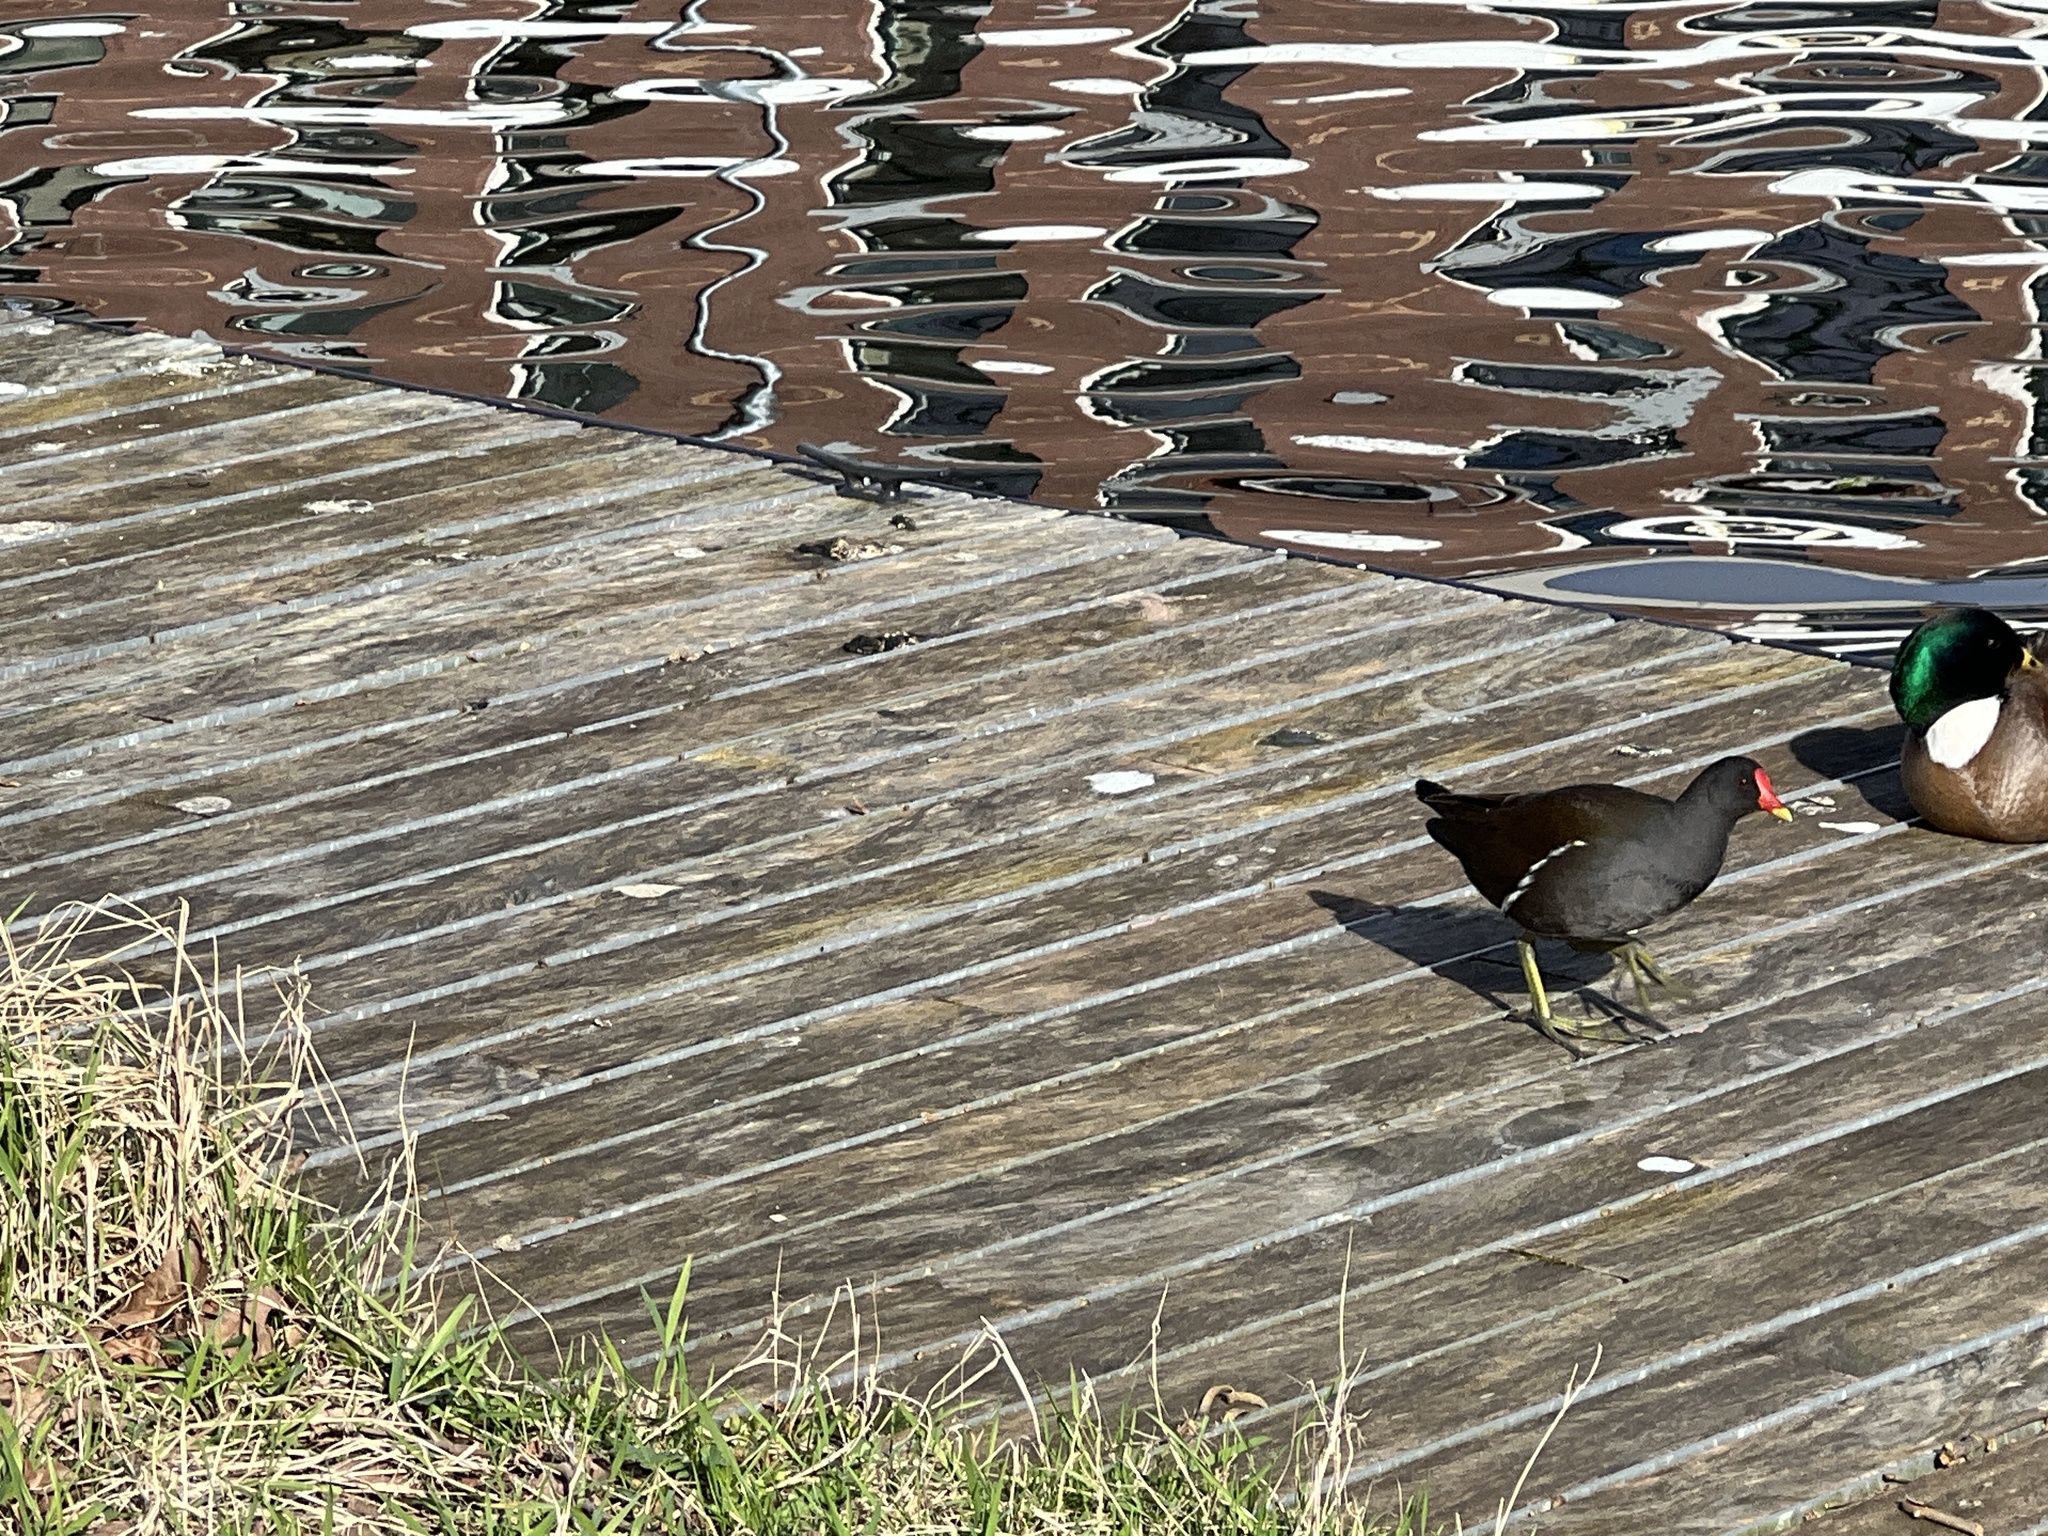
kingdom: Animalia
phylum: Chordata
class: Aves
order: Gruiformes
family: Rallidae
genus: Gallinula
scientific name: Gallinula chloropus
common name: Common moorhen
